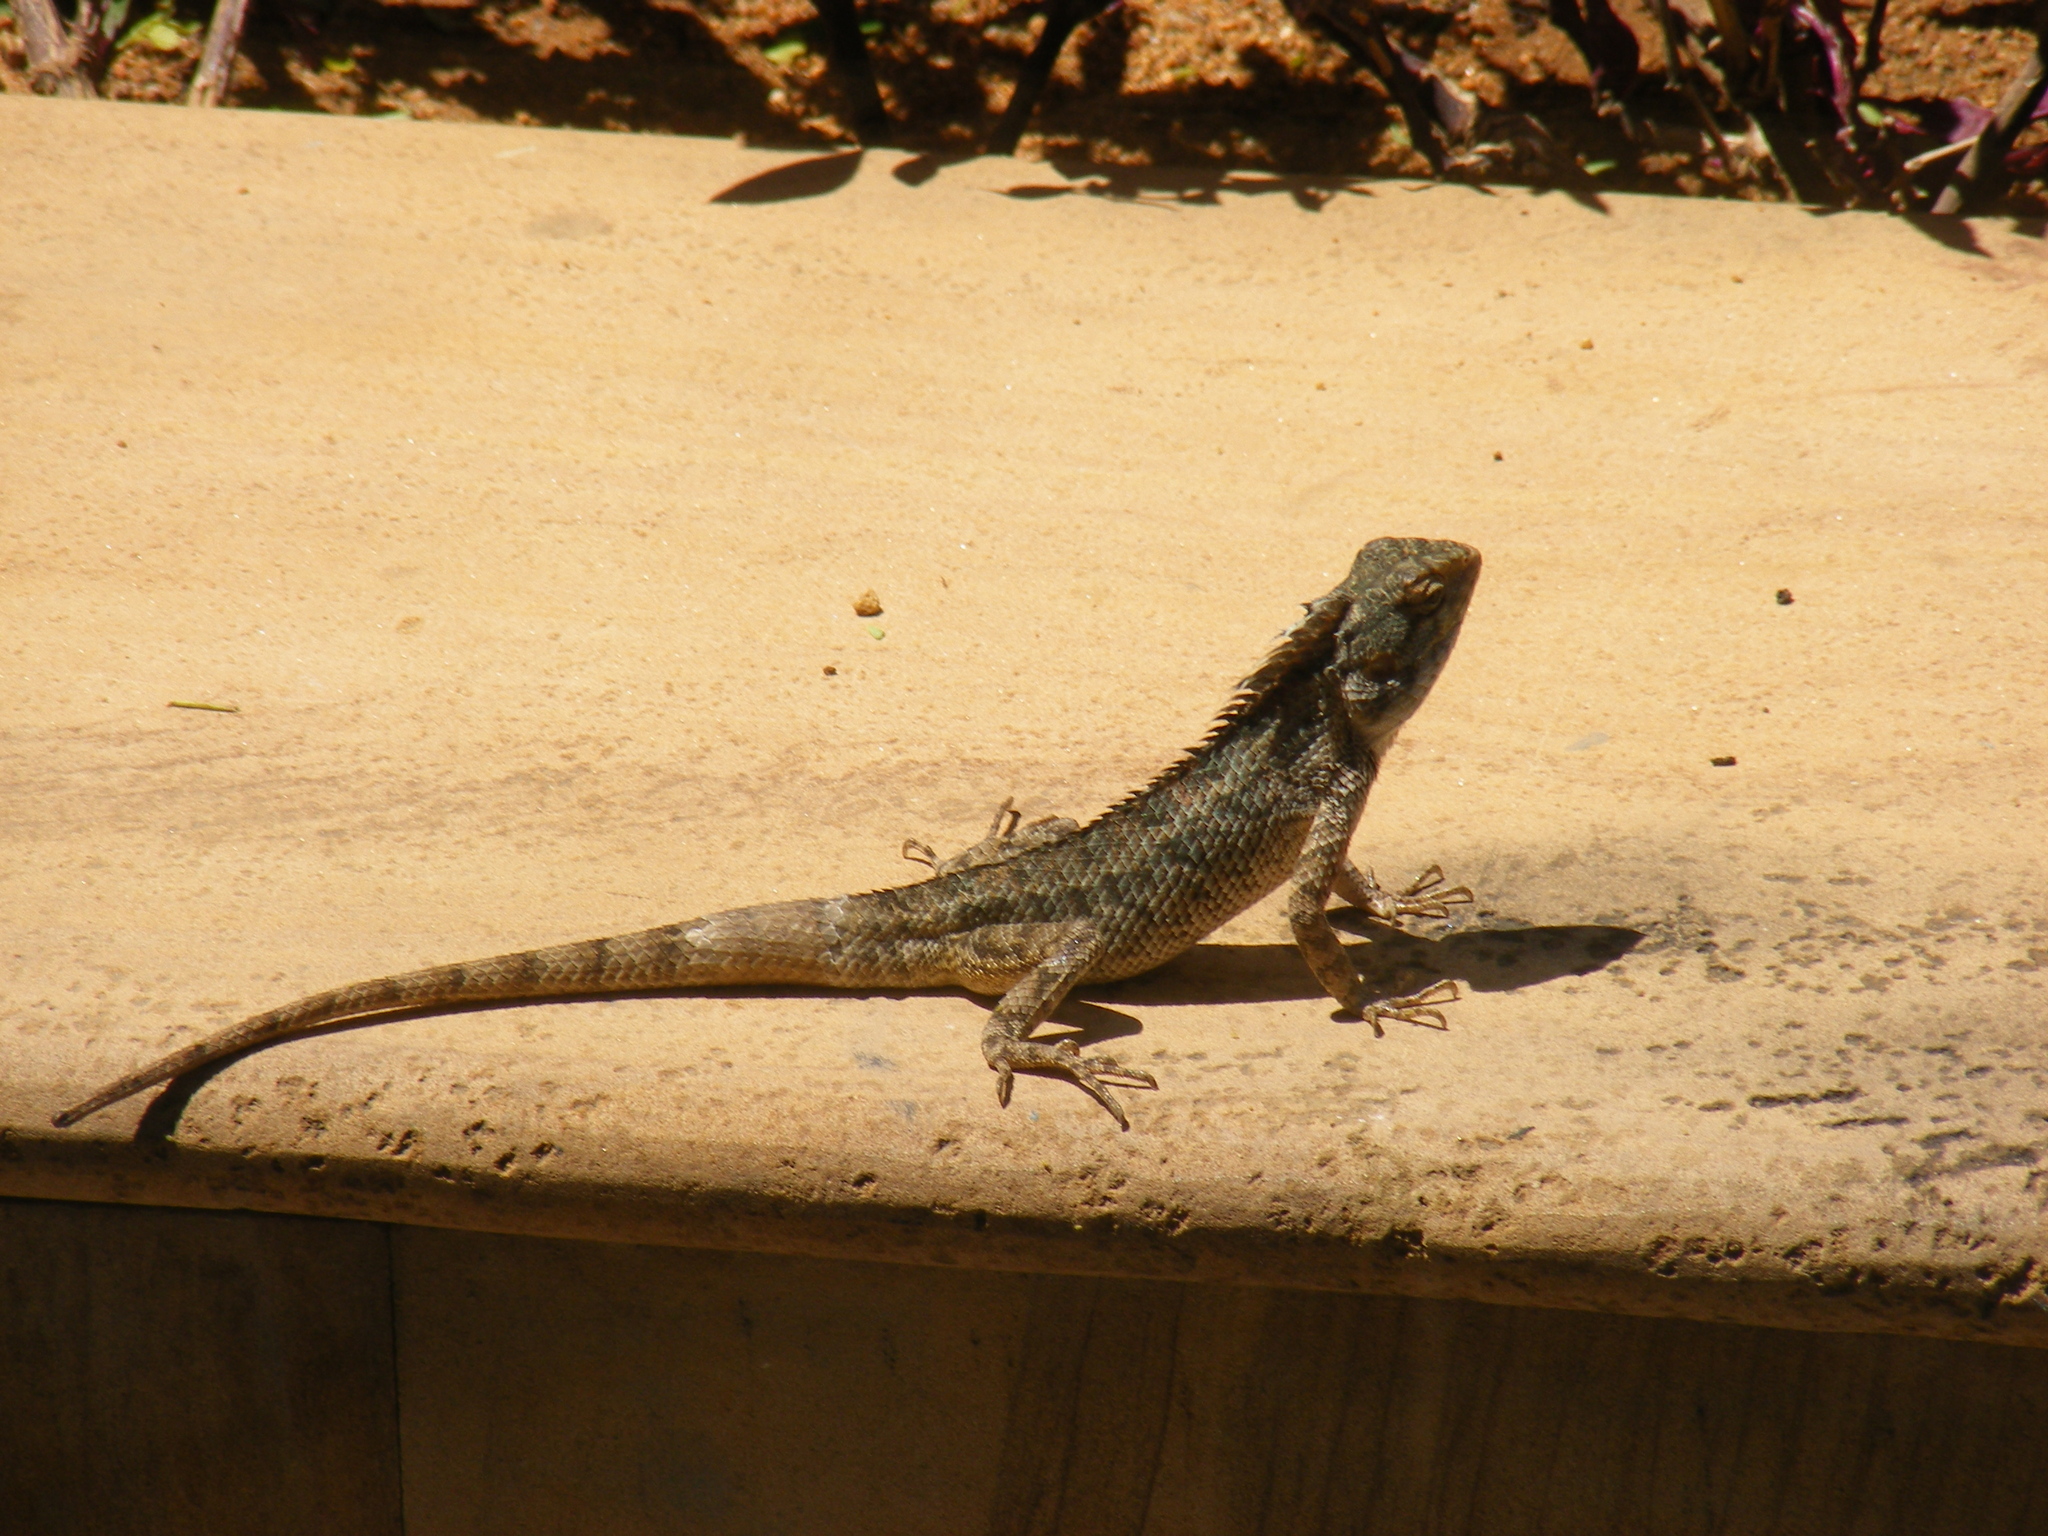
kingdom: Animalia
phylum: Chordata
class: Squamata
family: Agamidae
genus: Calotes
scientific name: Calotes versicolor
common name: Oriental garden lizard
